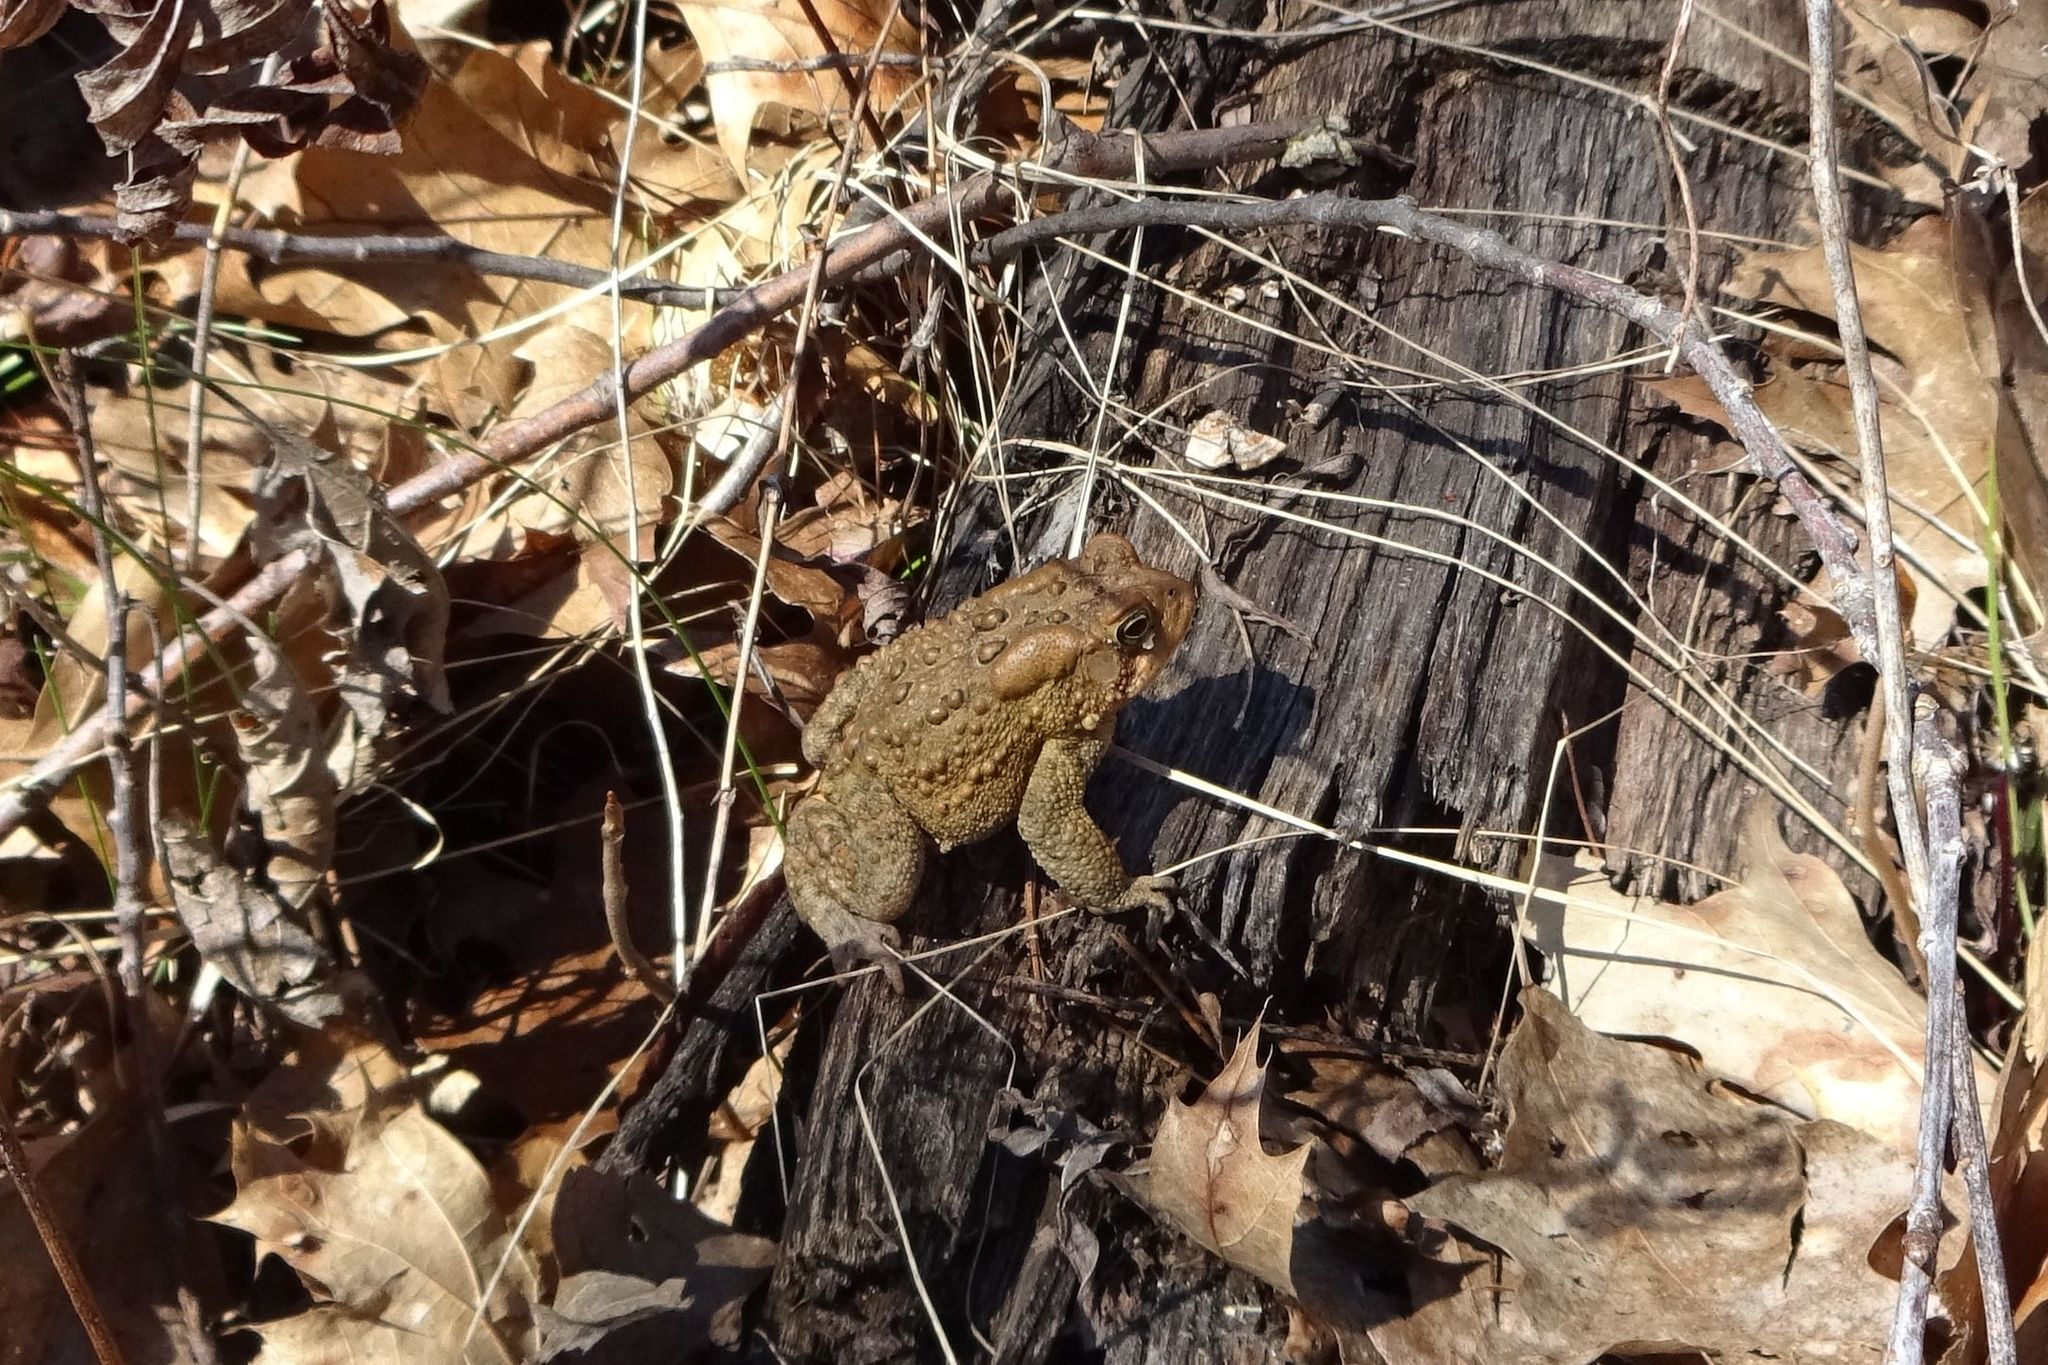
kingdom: Animalia
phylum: Chordata
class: Amphibia
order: Anura
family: Bufonidae
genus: Anaxyrus
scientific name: Anaxyrus americanus
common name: American toad
